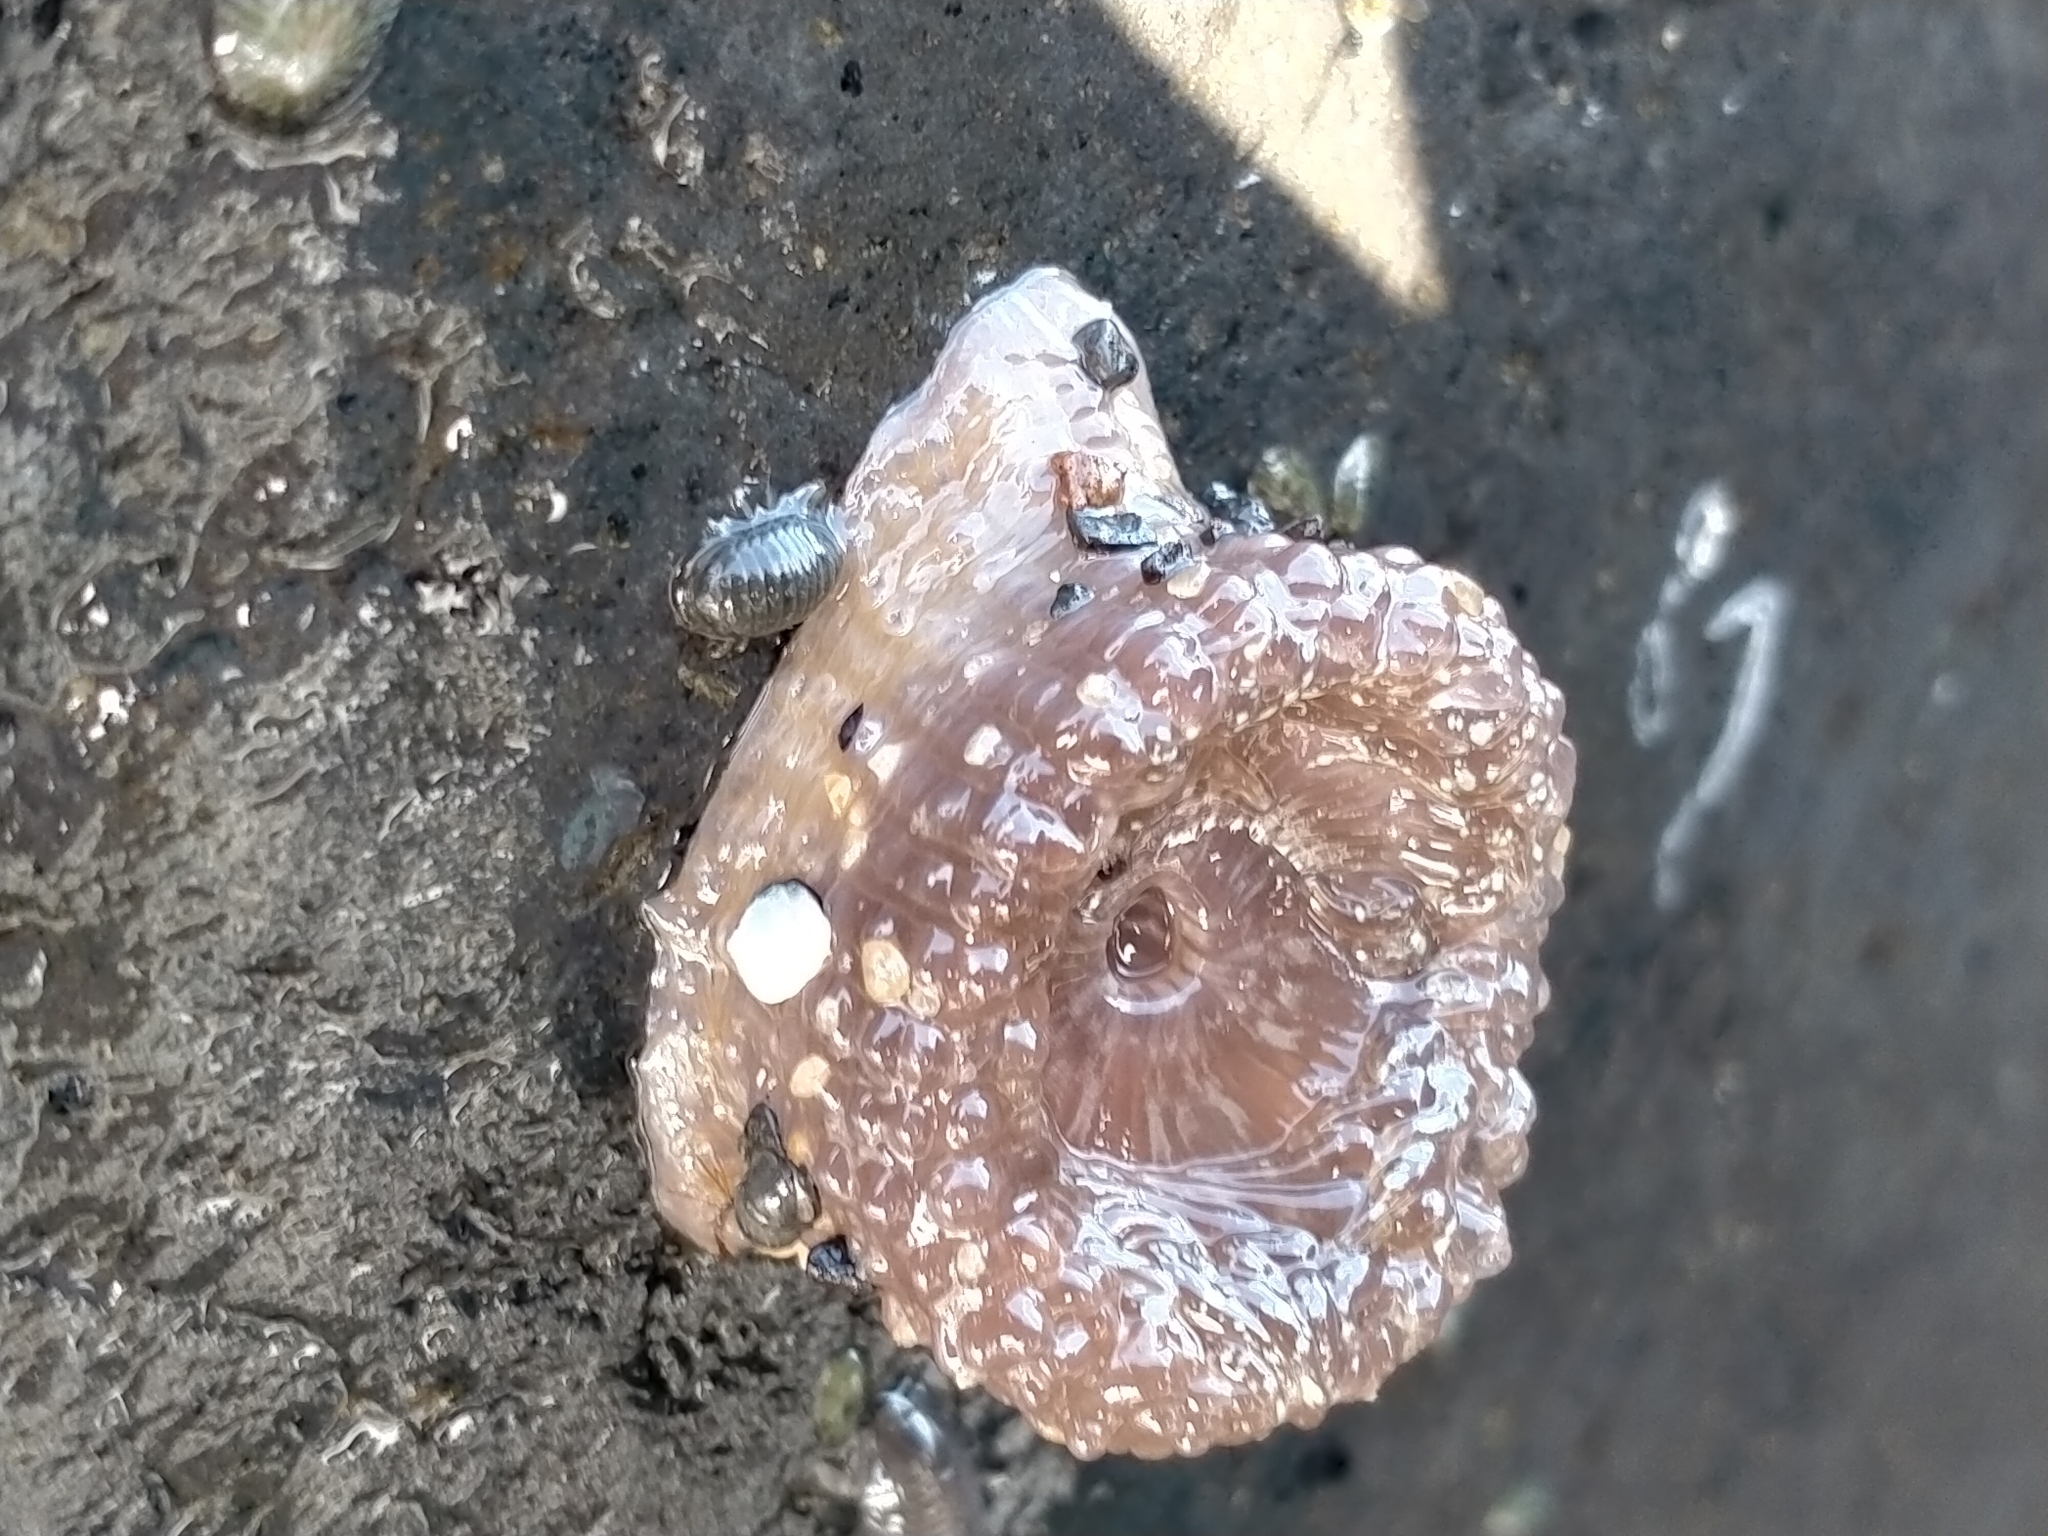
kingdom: Animalia
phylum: Cnidaria
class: Anthozoa
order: Actiniaria
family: Actiniidae
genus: Anthopleura
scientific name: Anthopleura hermaphroditica
